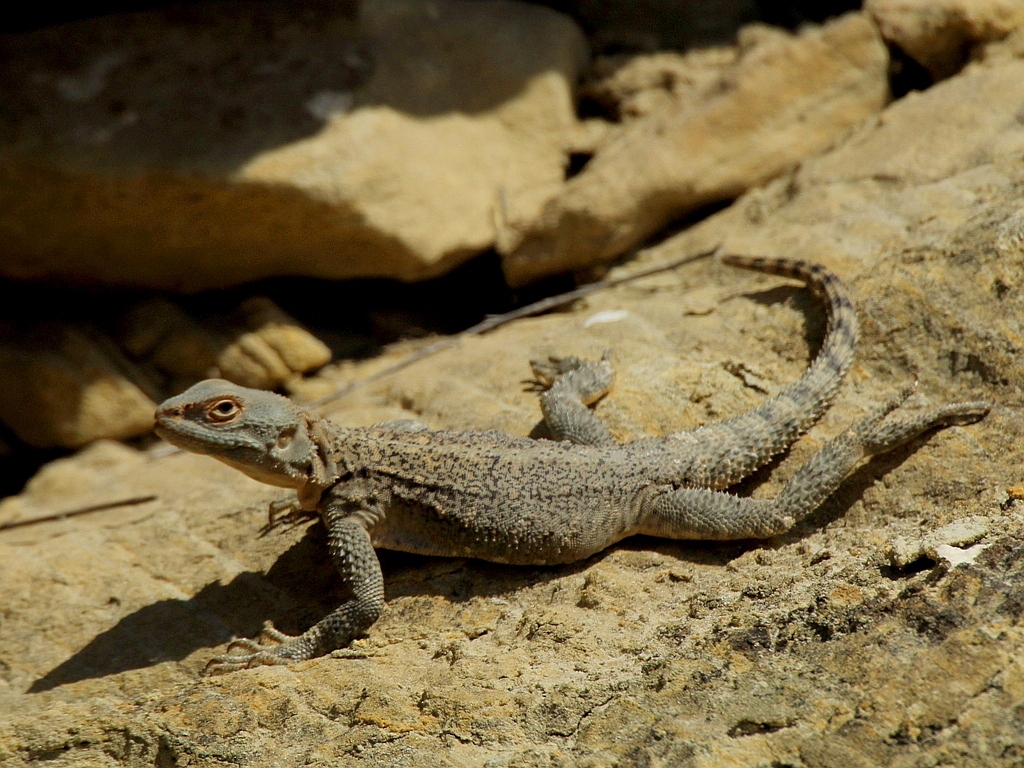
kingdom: Animalia
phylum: Chordata
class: Squamata
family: Agamidae
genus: Paralaudakia
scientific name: Paralaudakia caucasia
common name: Caucasian agama
